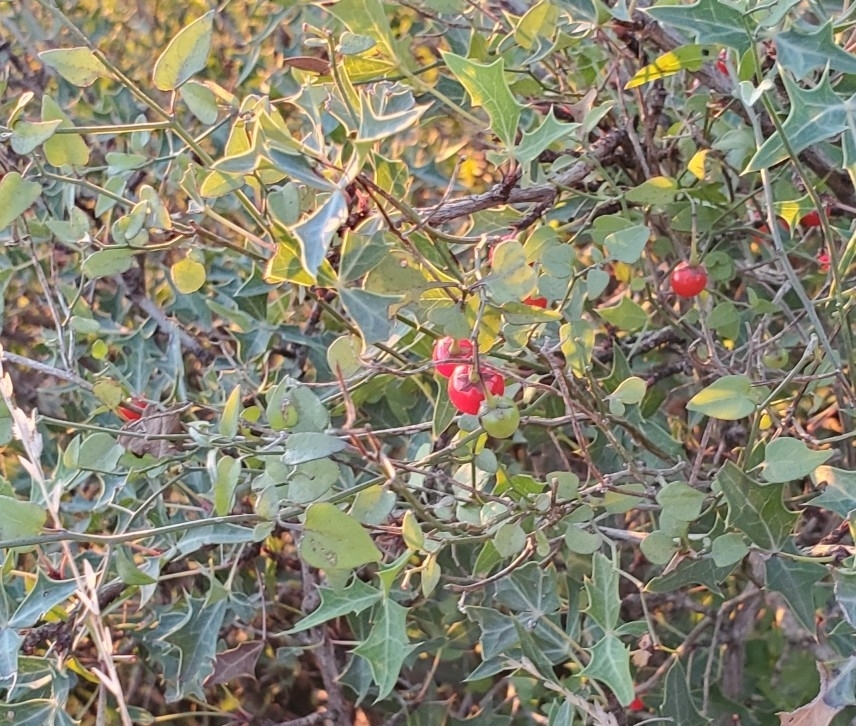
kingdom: Plantae
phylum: Tracheophyta
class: Magnoliopsida
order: Solanales
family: Solanaceae
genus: Solanum
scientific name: Solanum triquetrum
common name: Texas nightshade
